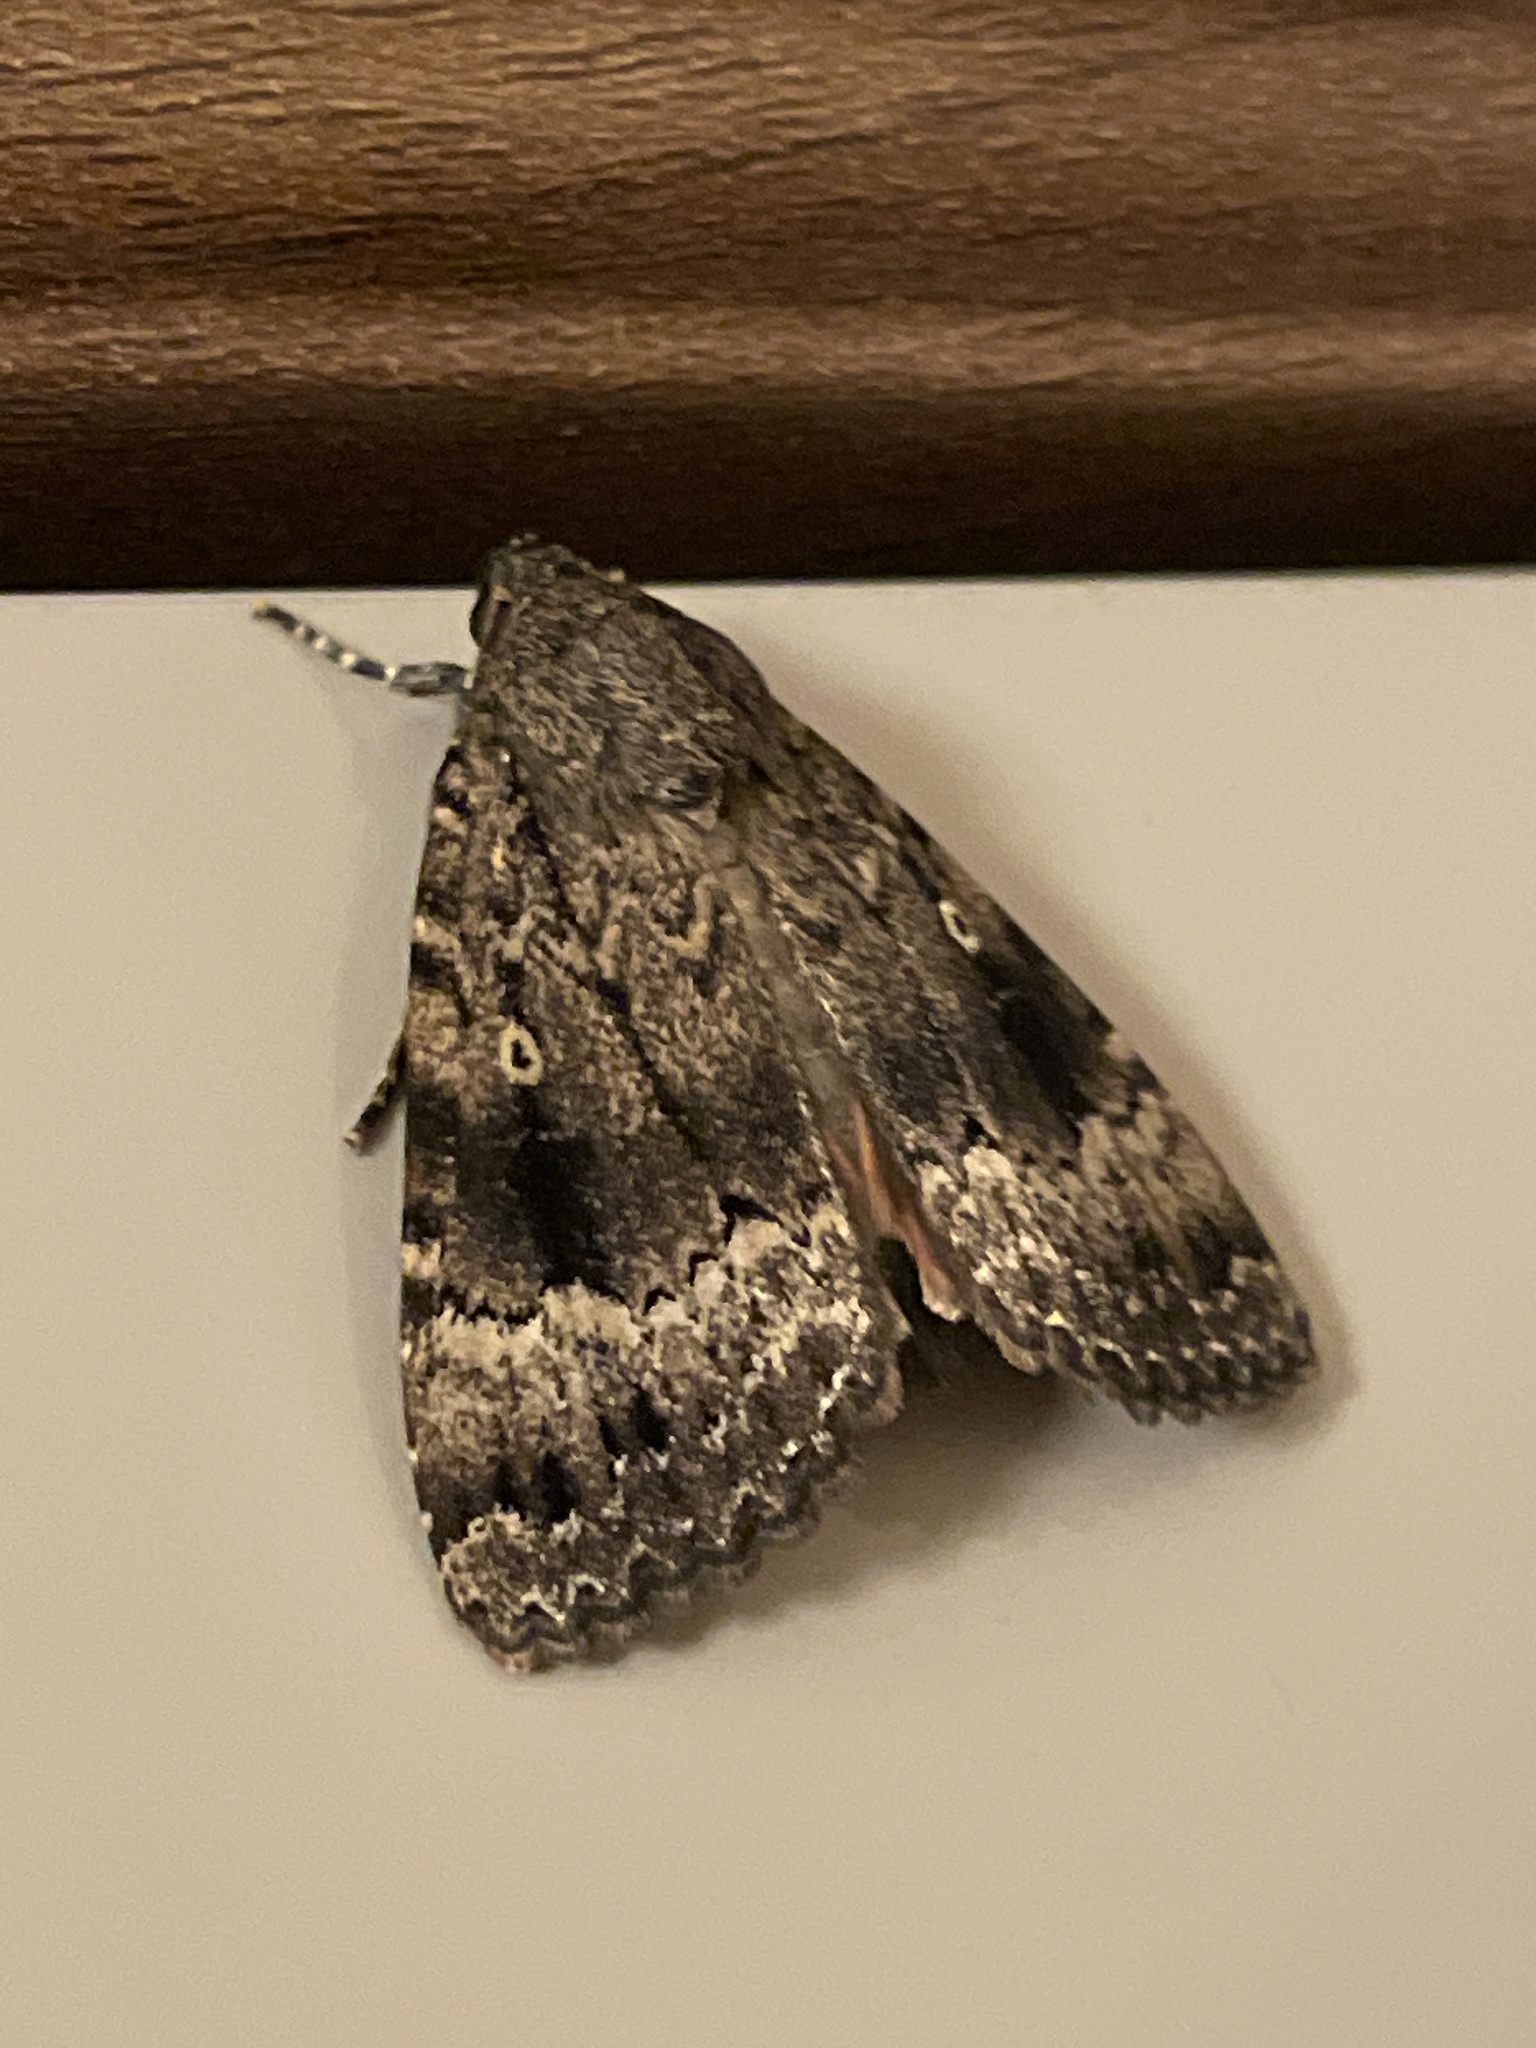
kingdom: Animalia
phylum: Arthropoda
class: Insecta
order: Lepidoptera
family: Noctuidae
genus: Amphipyra
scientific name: Amphipyra pyramidea
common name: Copper underwing
